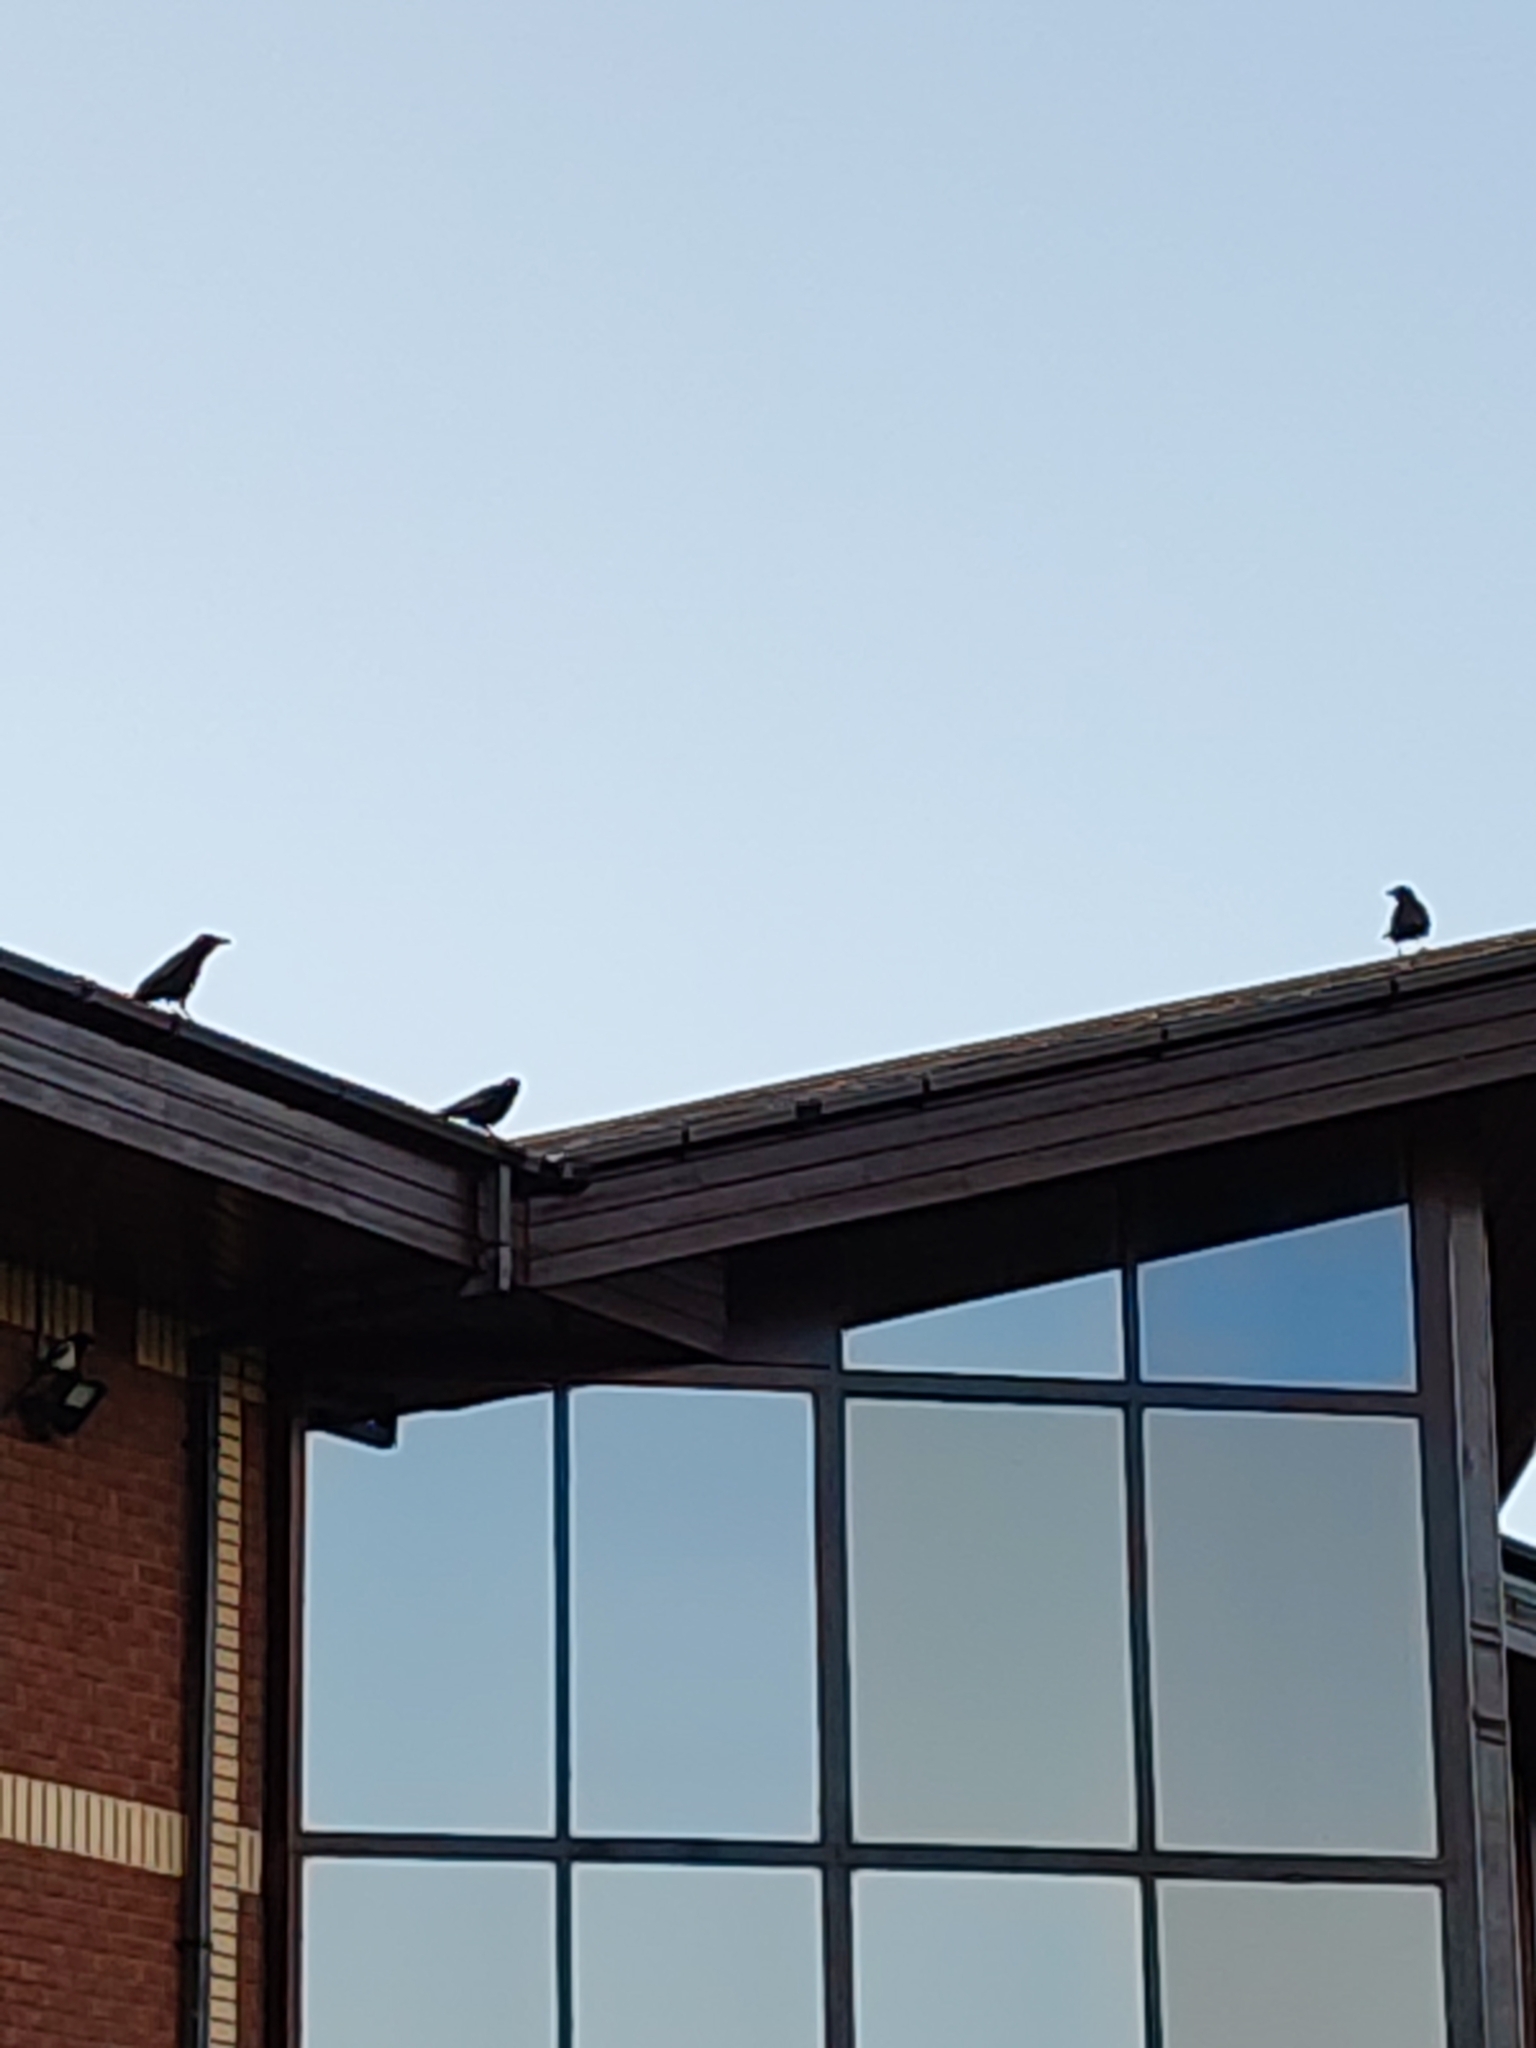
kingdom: Animalia
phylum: Chordata
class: Aves
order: Passeriformes
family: Corvidae
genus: Corvus
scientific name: Corvus corone
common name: Carrion crow
